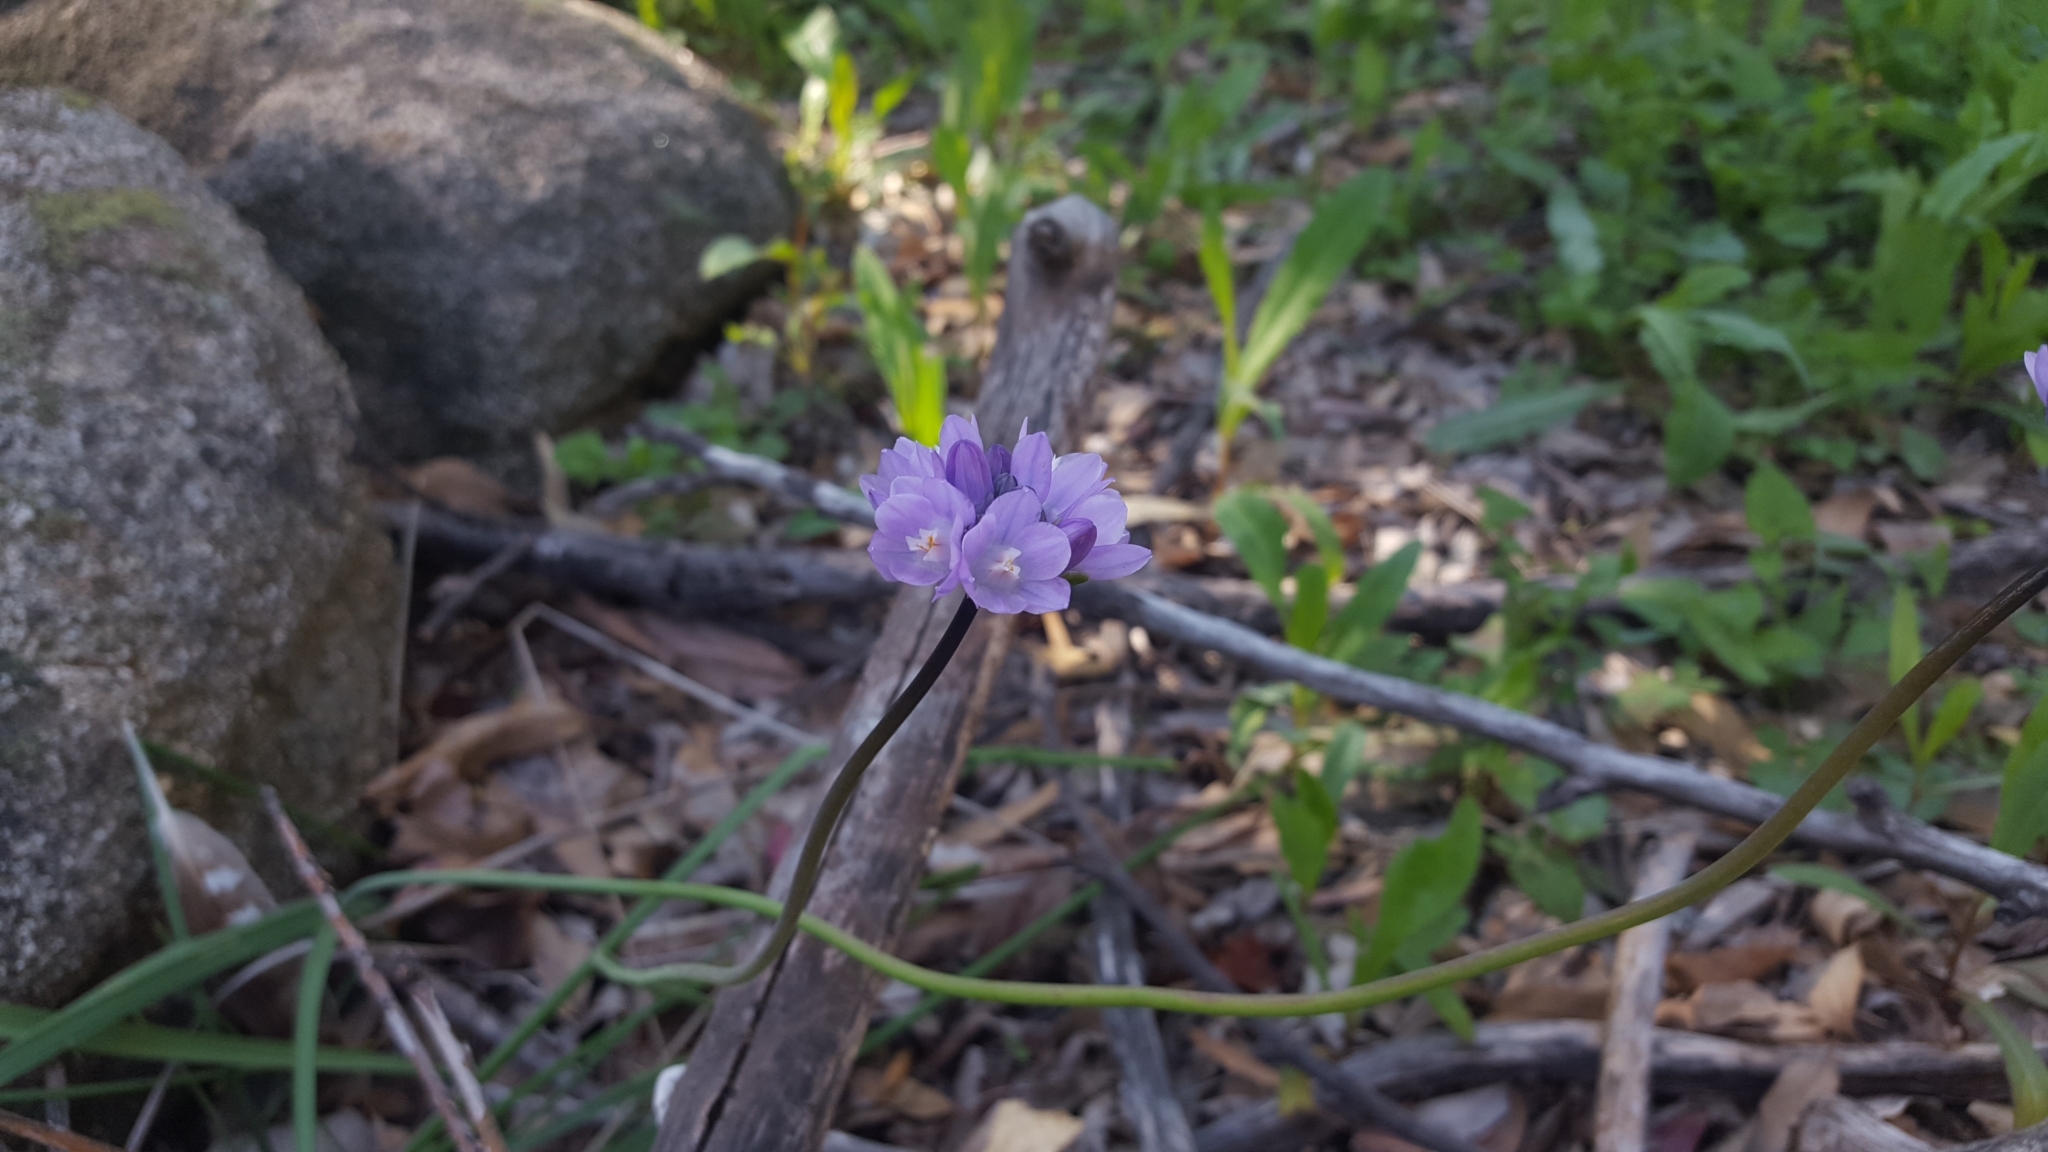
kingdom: Plantae
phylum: Tracheophyta
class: Liliopsida
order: Asparagales
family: Asparagaceae
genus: Dipterostemon
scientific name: Dipterostemon capitatus
